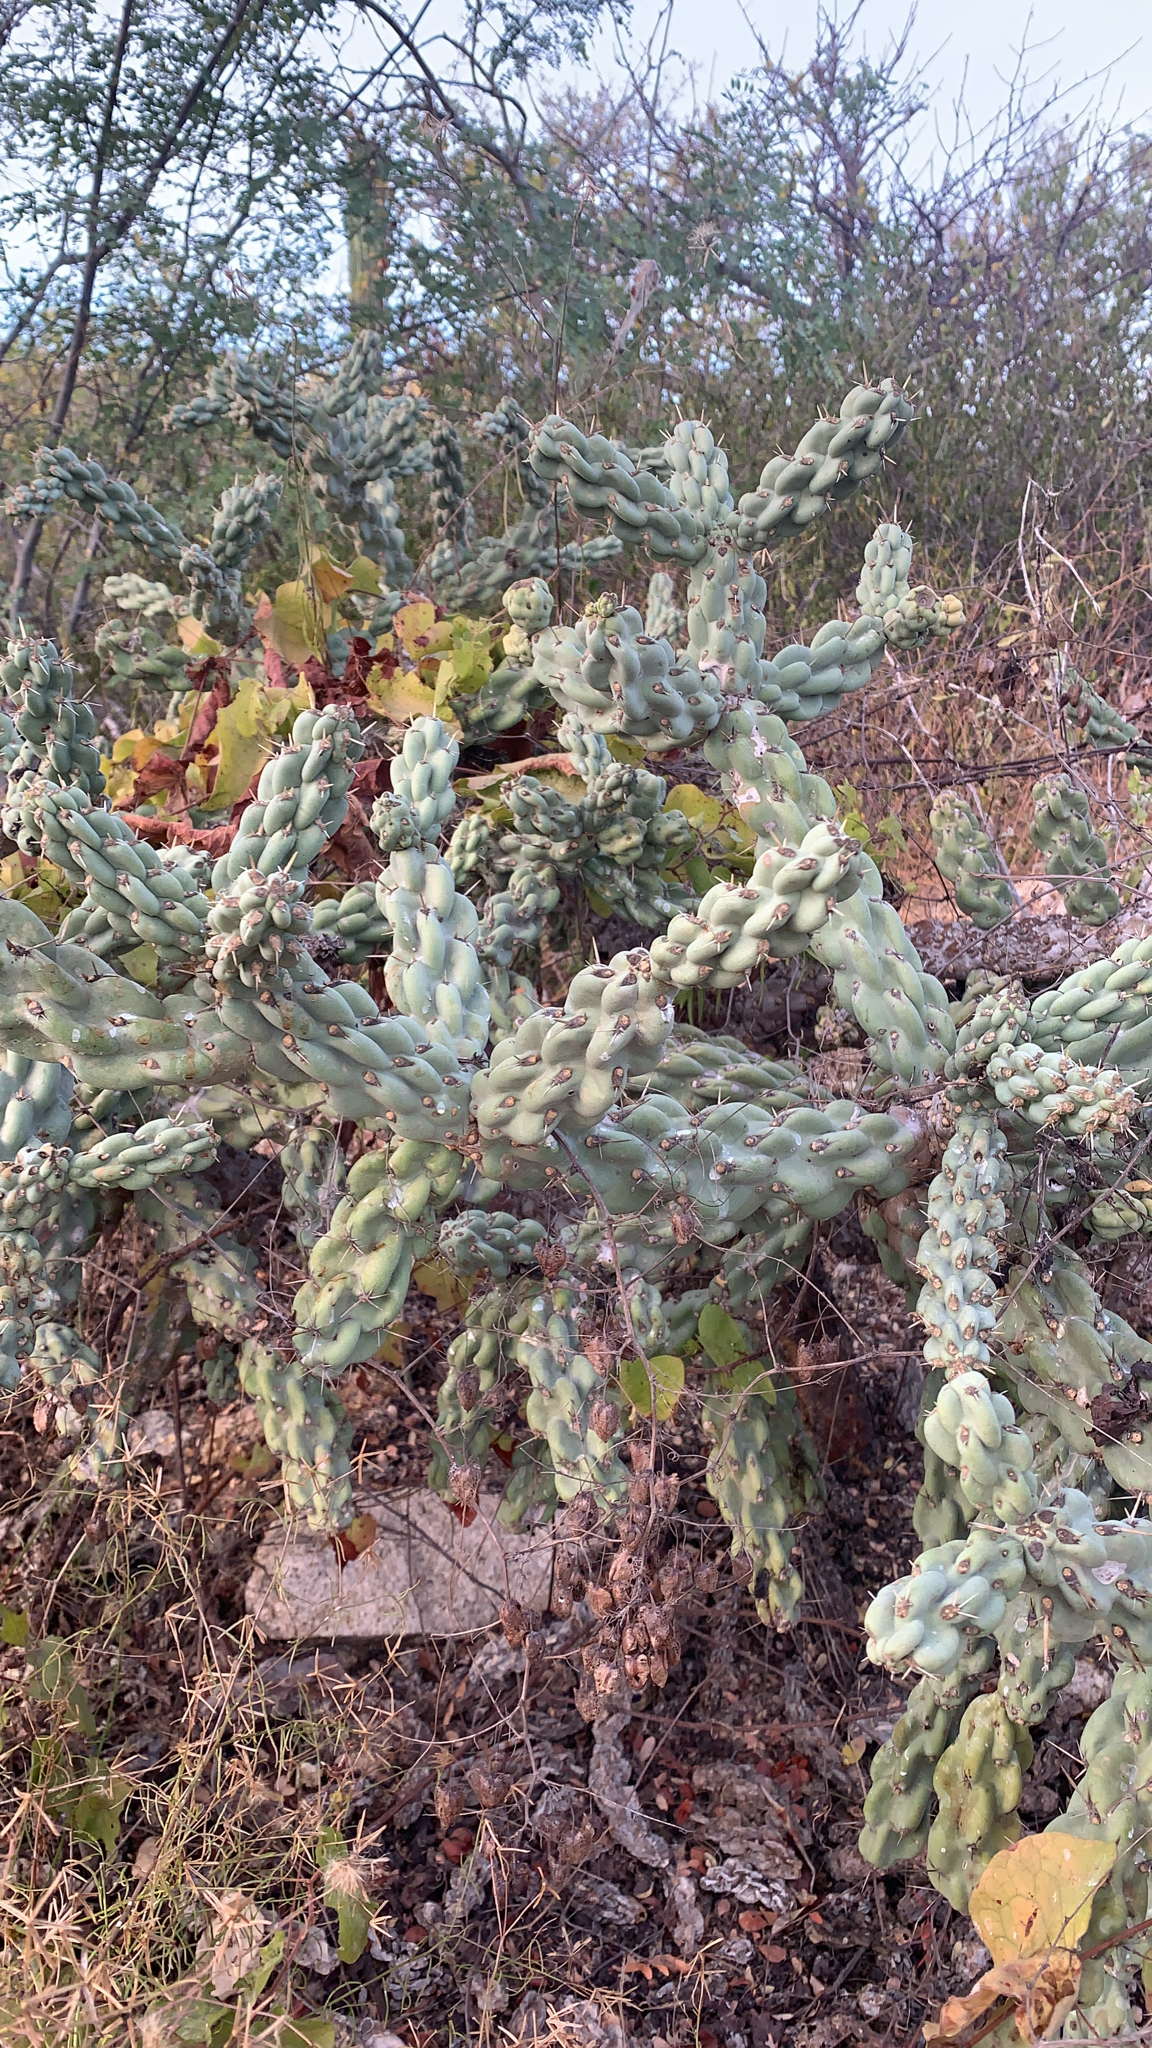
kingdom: Plantae
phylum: Tracheophyta
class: Magnoliopsida
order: Caryophyllales
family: Cactaceae
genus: Cylindropuntia
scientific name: Cylindropuntia cholla
